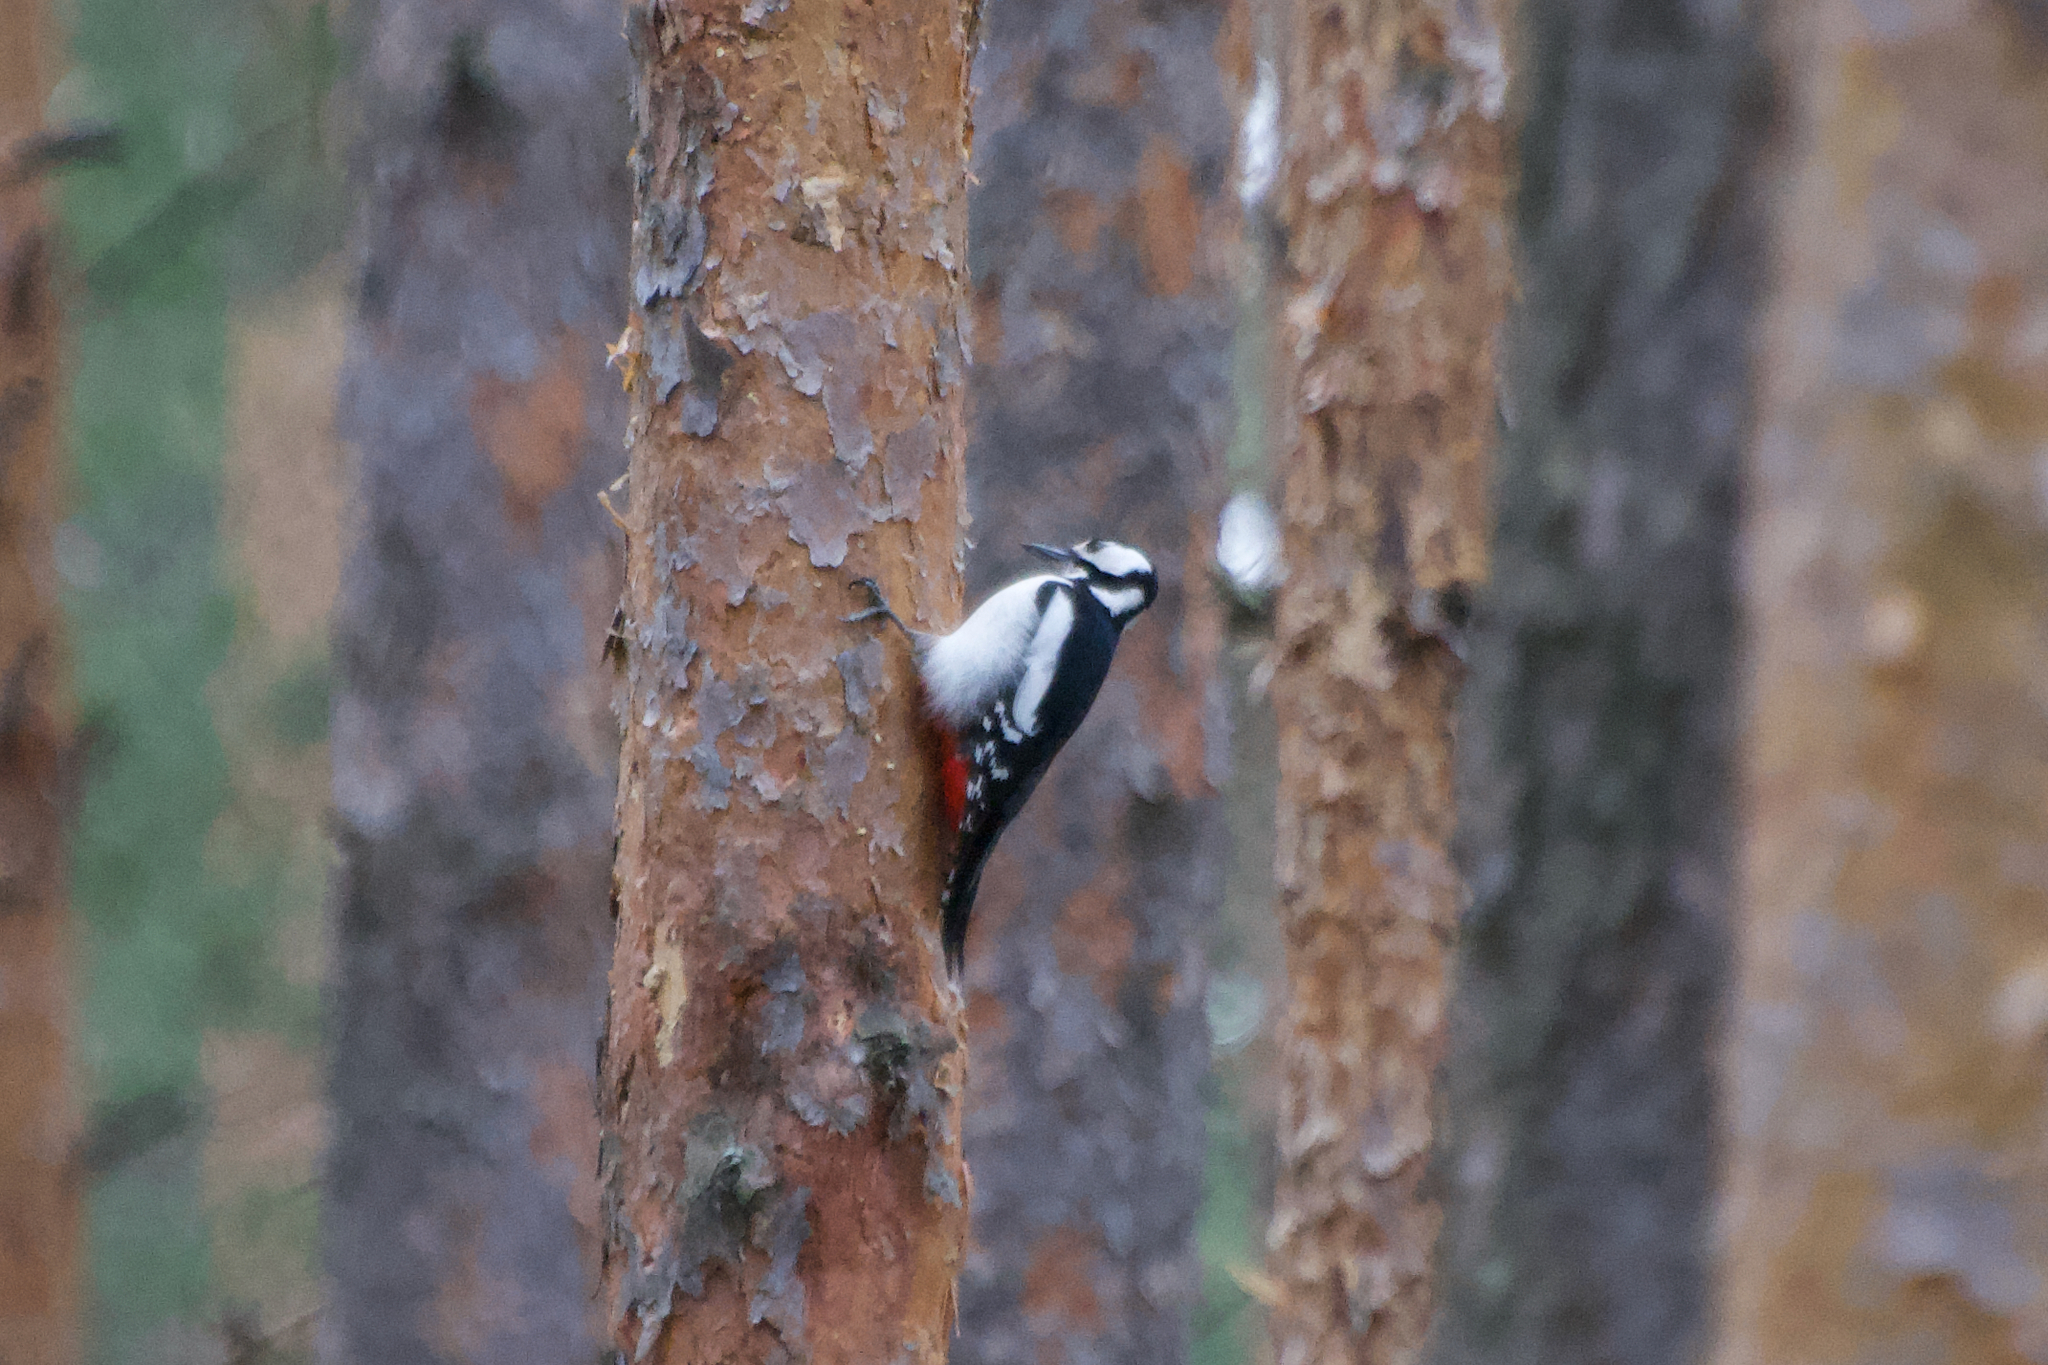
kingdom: Animalia
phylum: Chordata
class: Aves
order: Piciformes
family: Picidae
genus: Dendrocopos
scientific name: Dendrocopos major
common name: Great spotted woodpecker
